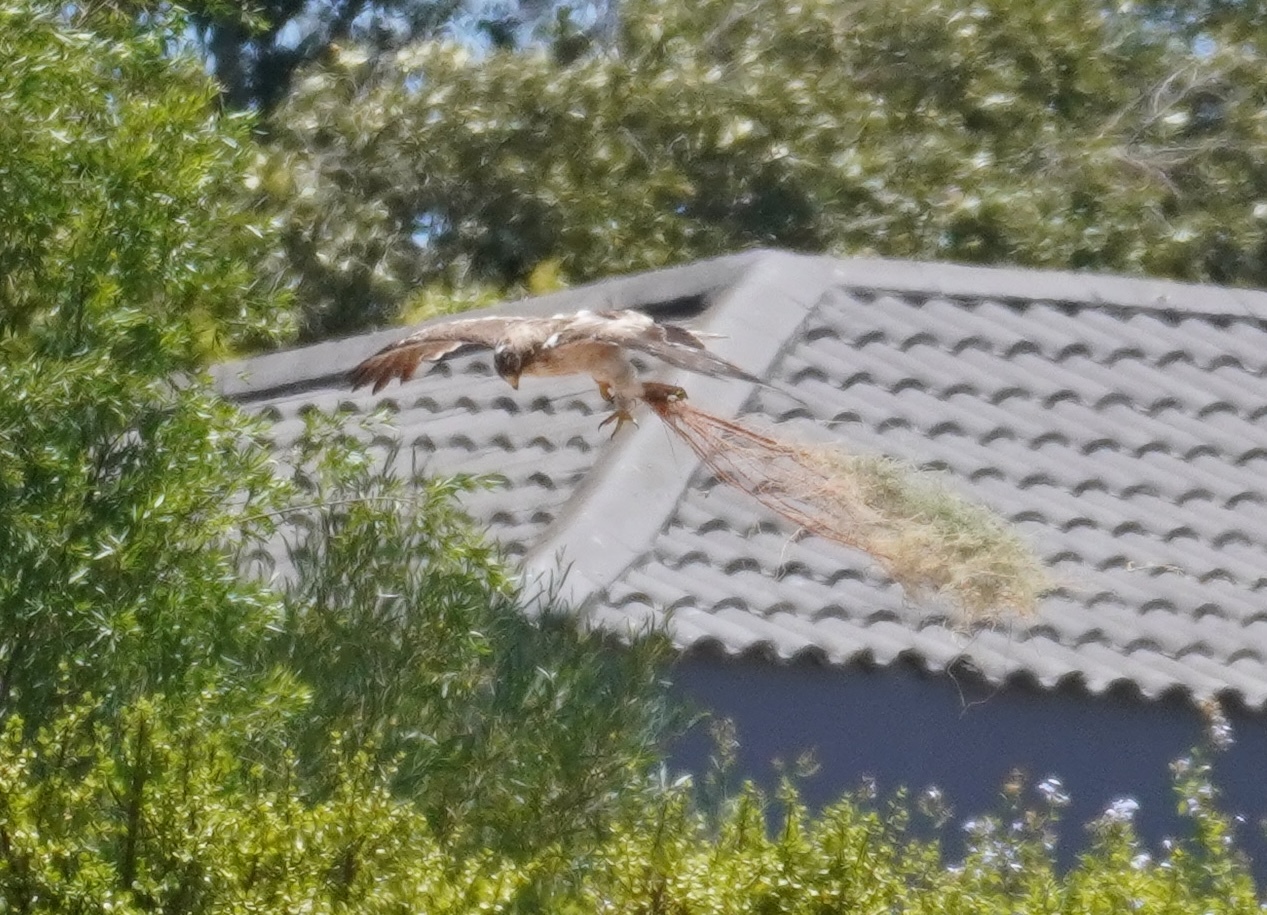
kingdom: Animalia
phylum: Chordata
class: Aves
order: Accipitriformes
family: Accipitridae
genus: Hieraaetus
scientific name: Hieraaetus pennatus
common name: Booted eagle
